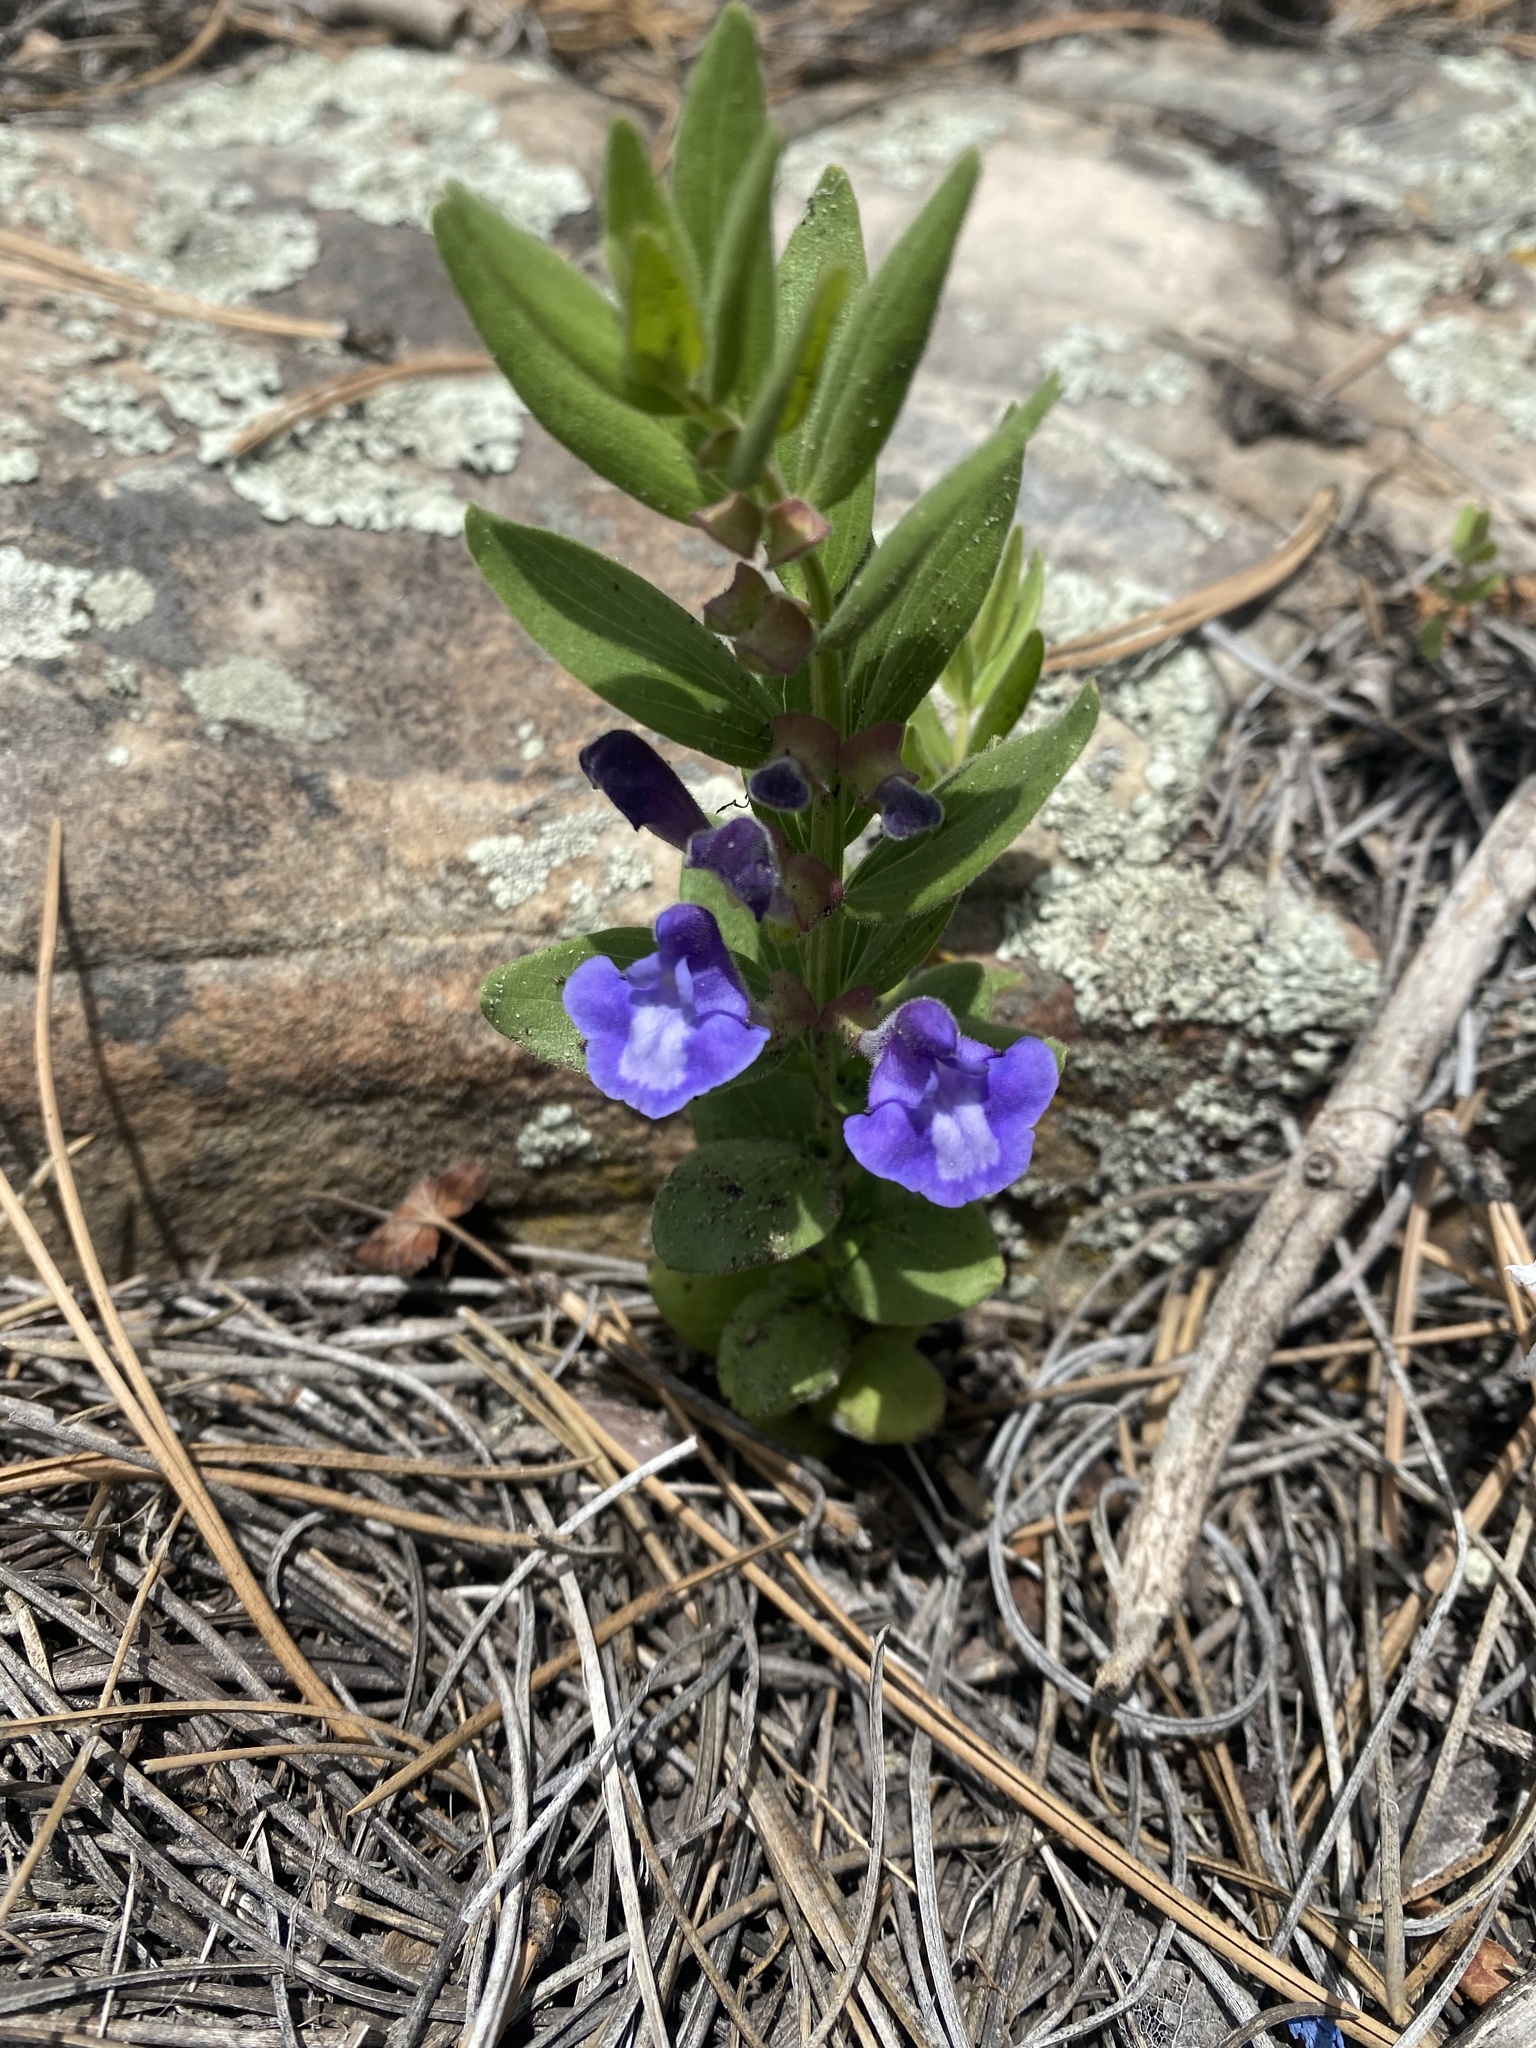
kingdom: Plantae
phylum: Tracheophyta
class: Magnoliopsida
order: Lamiales
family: Lamiaceae
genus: Scutellaria
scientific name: Scutellaria brittonii
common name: Britton's skullcap
